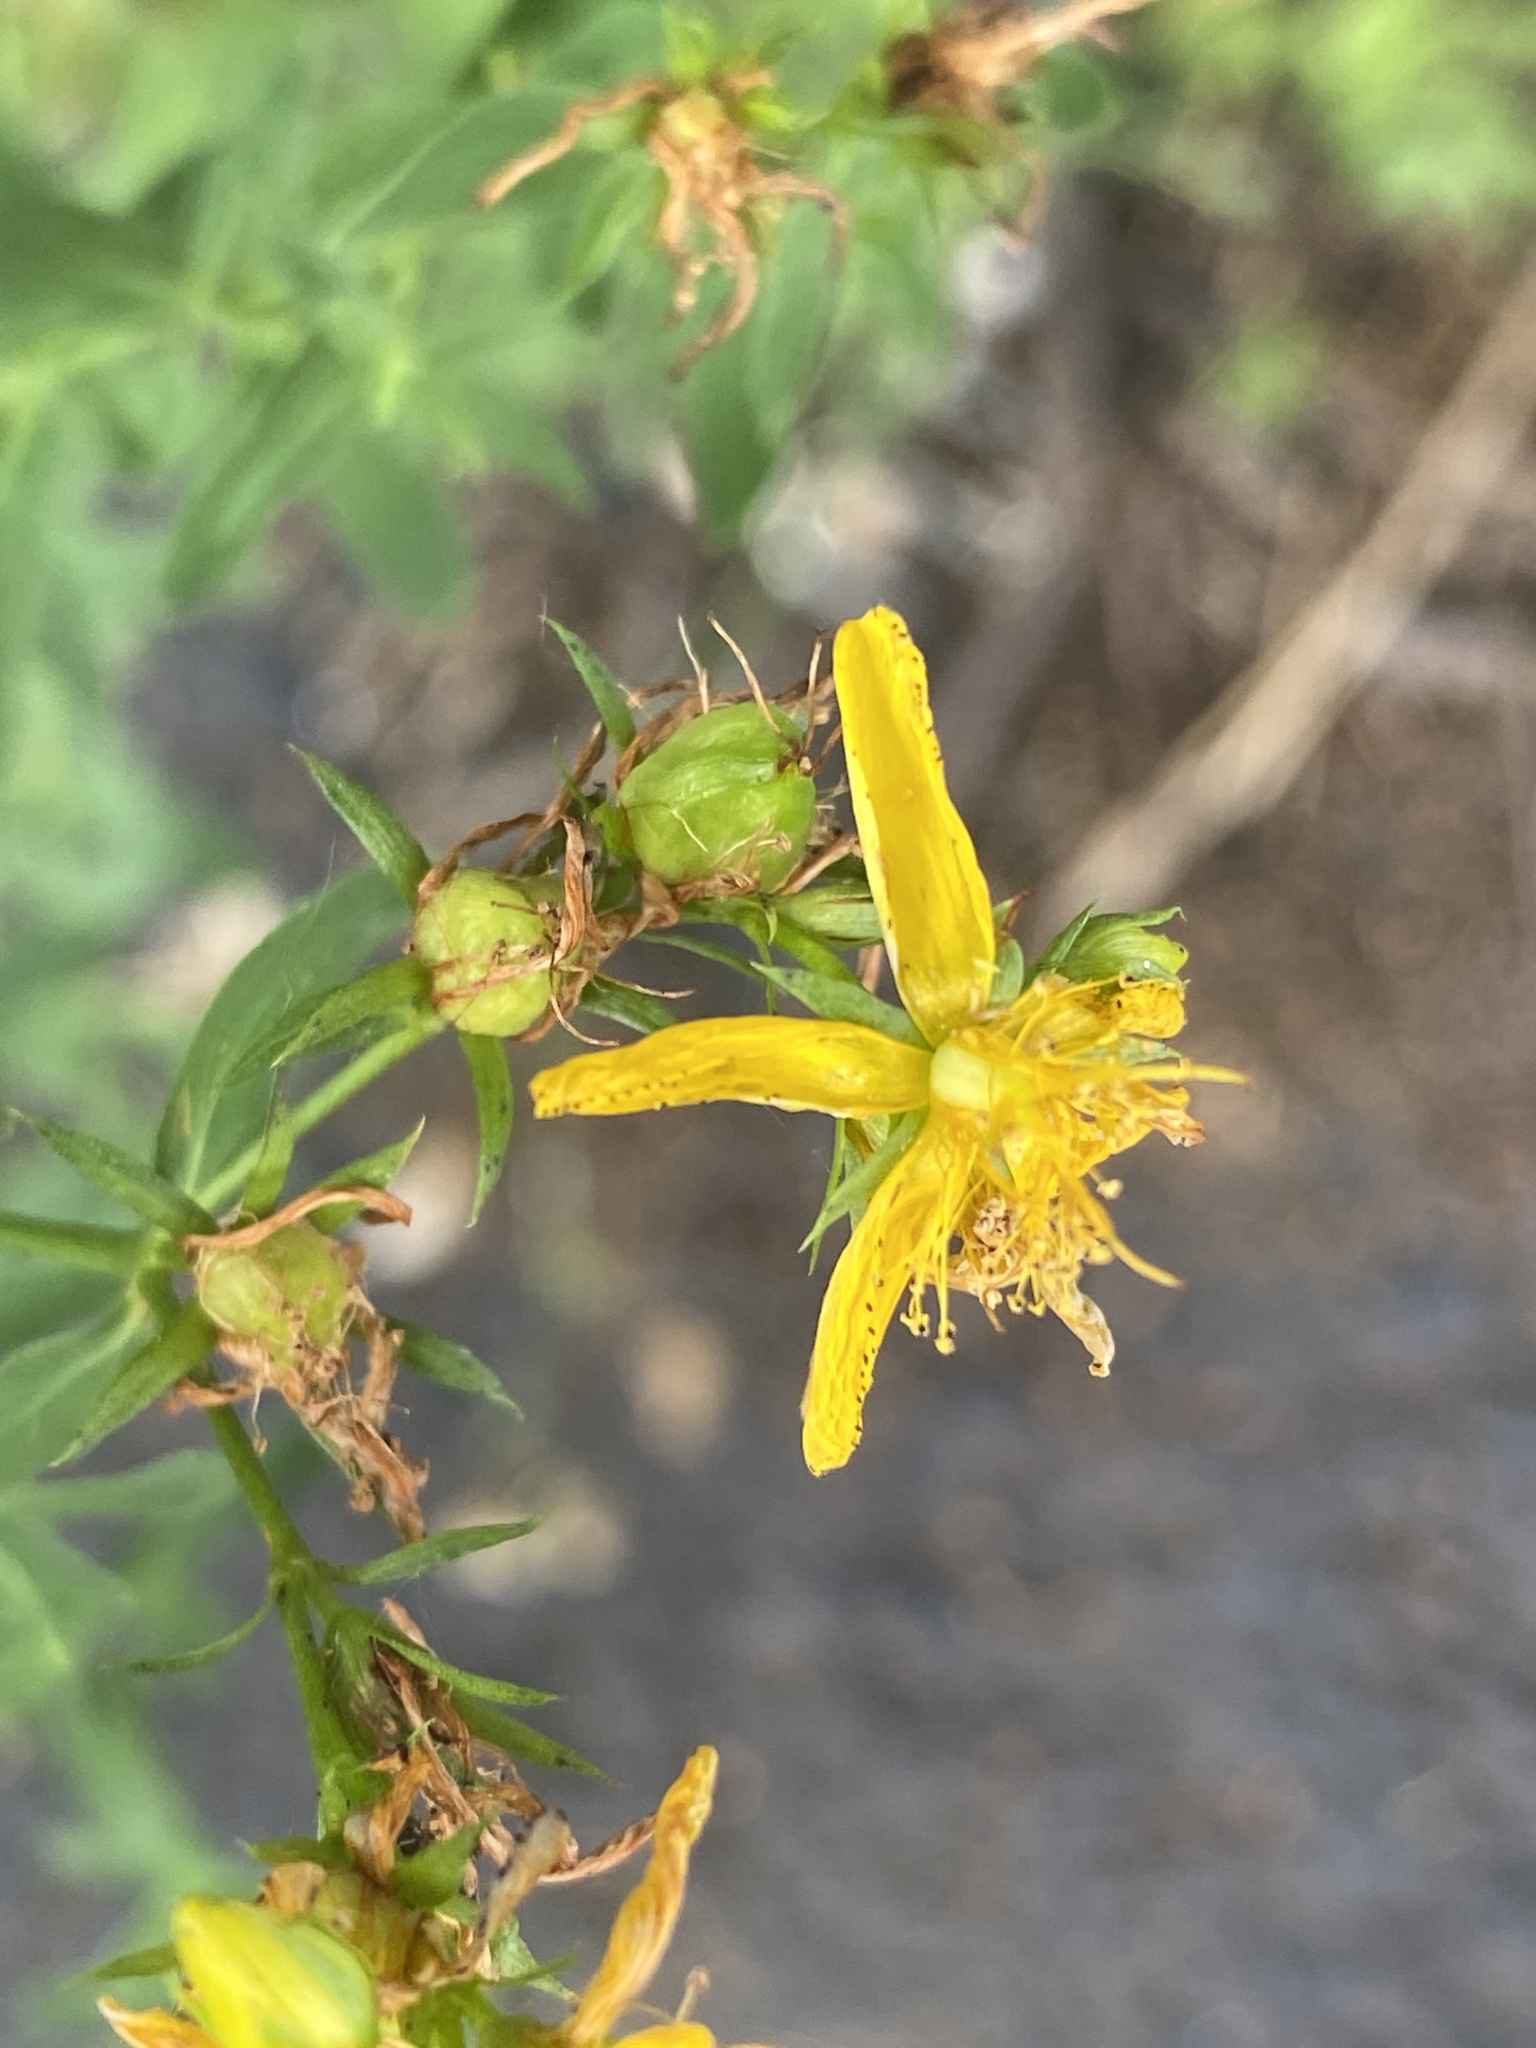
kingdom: Plantae
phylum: Tracheophyta
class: Magnoliopsida
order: Malpighiales
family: Hypericaceae
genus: Hypericum
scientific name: Hypericum perforatum
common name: Common st. johnswort
